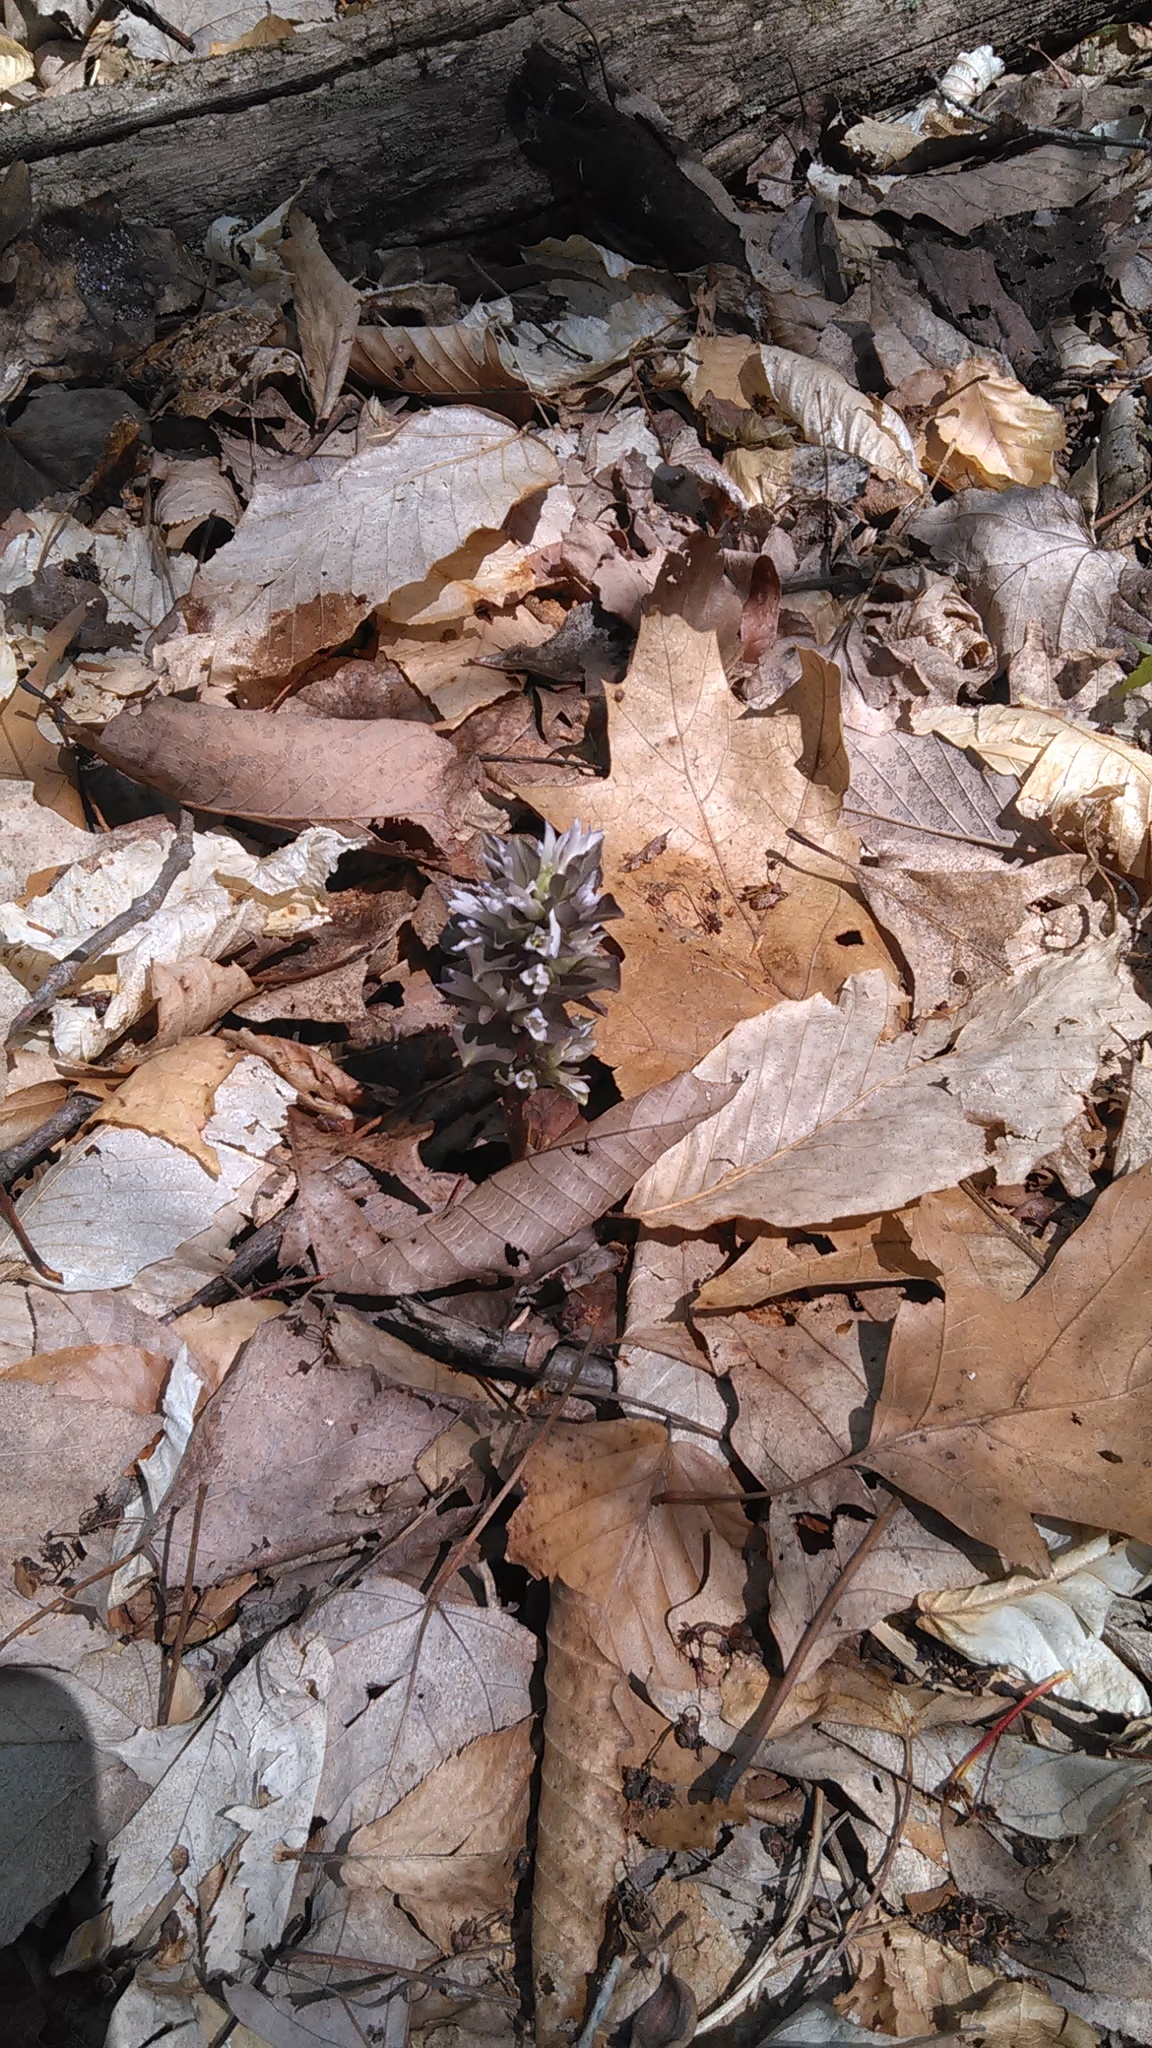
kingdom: Plantae
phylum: Tracheophyta
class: Magnoliopsida
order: Gentianales
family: Gentianaceae
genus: Obolaria
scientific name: Obolaria virginica
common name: Pennywort
